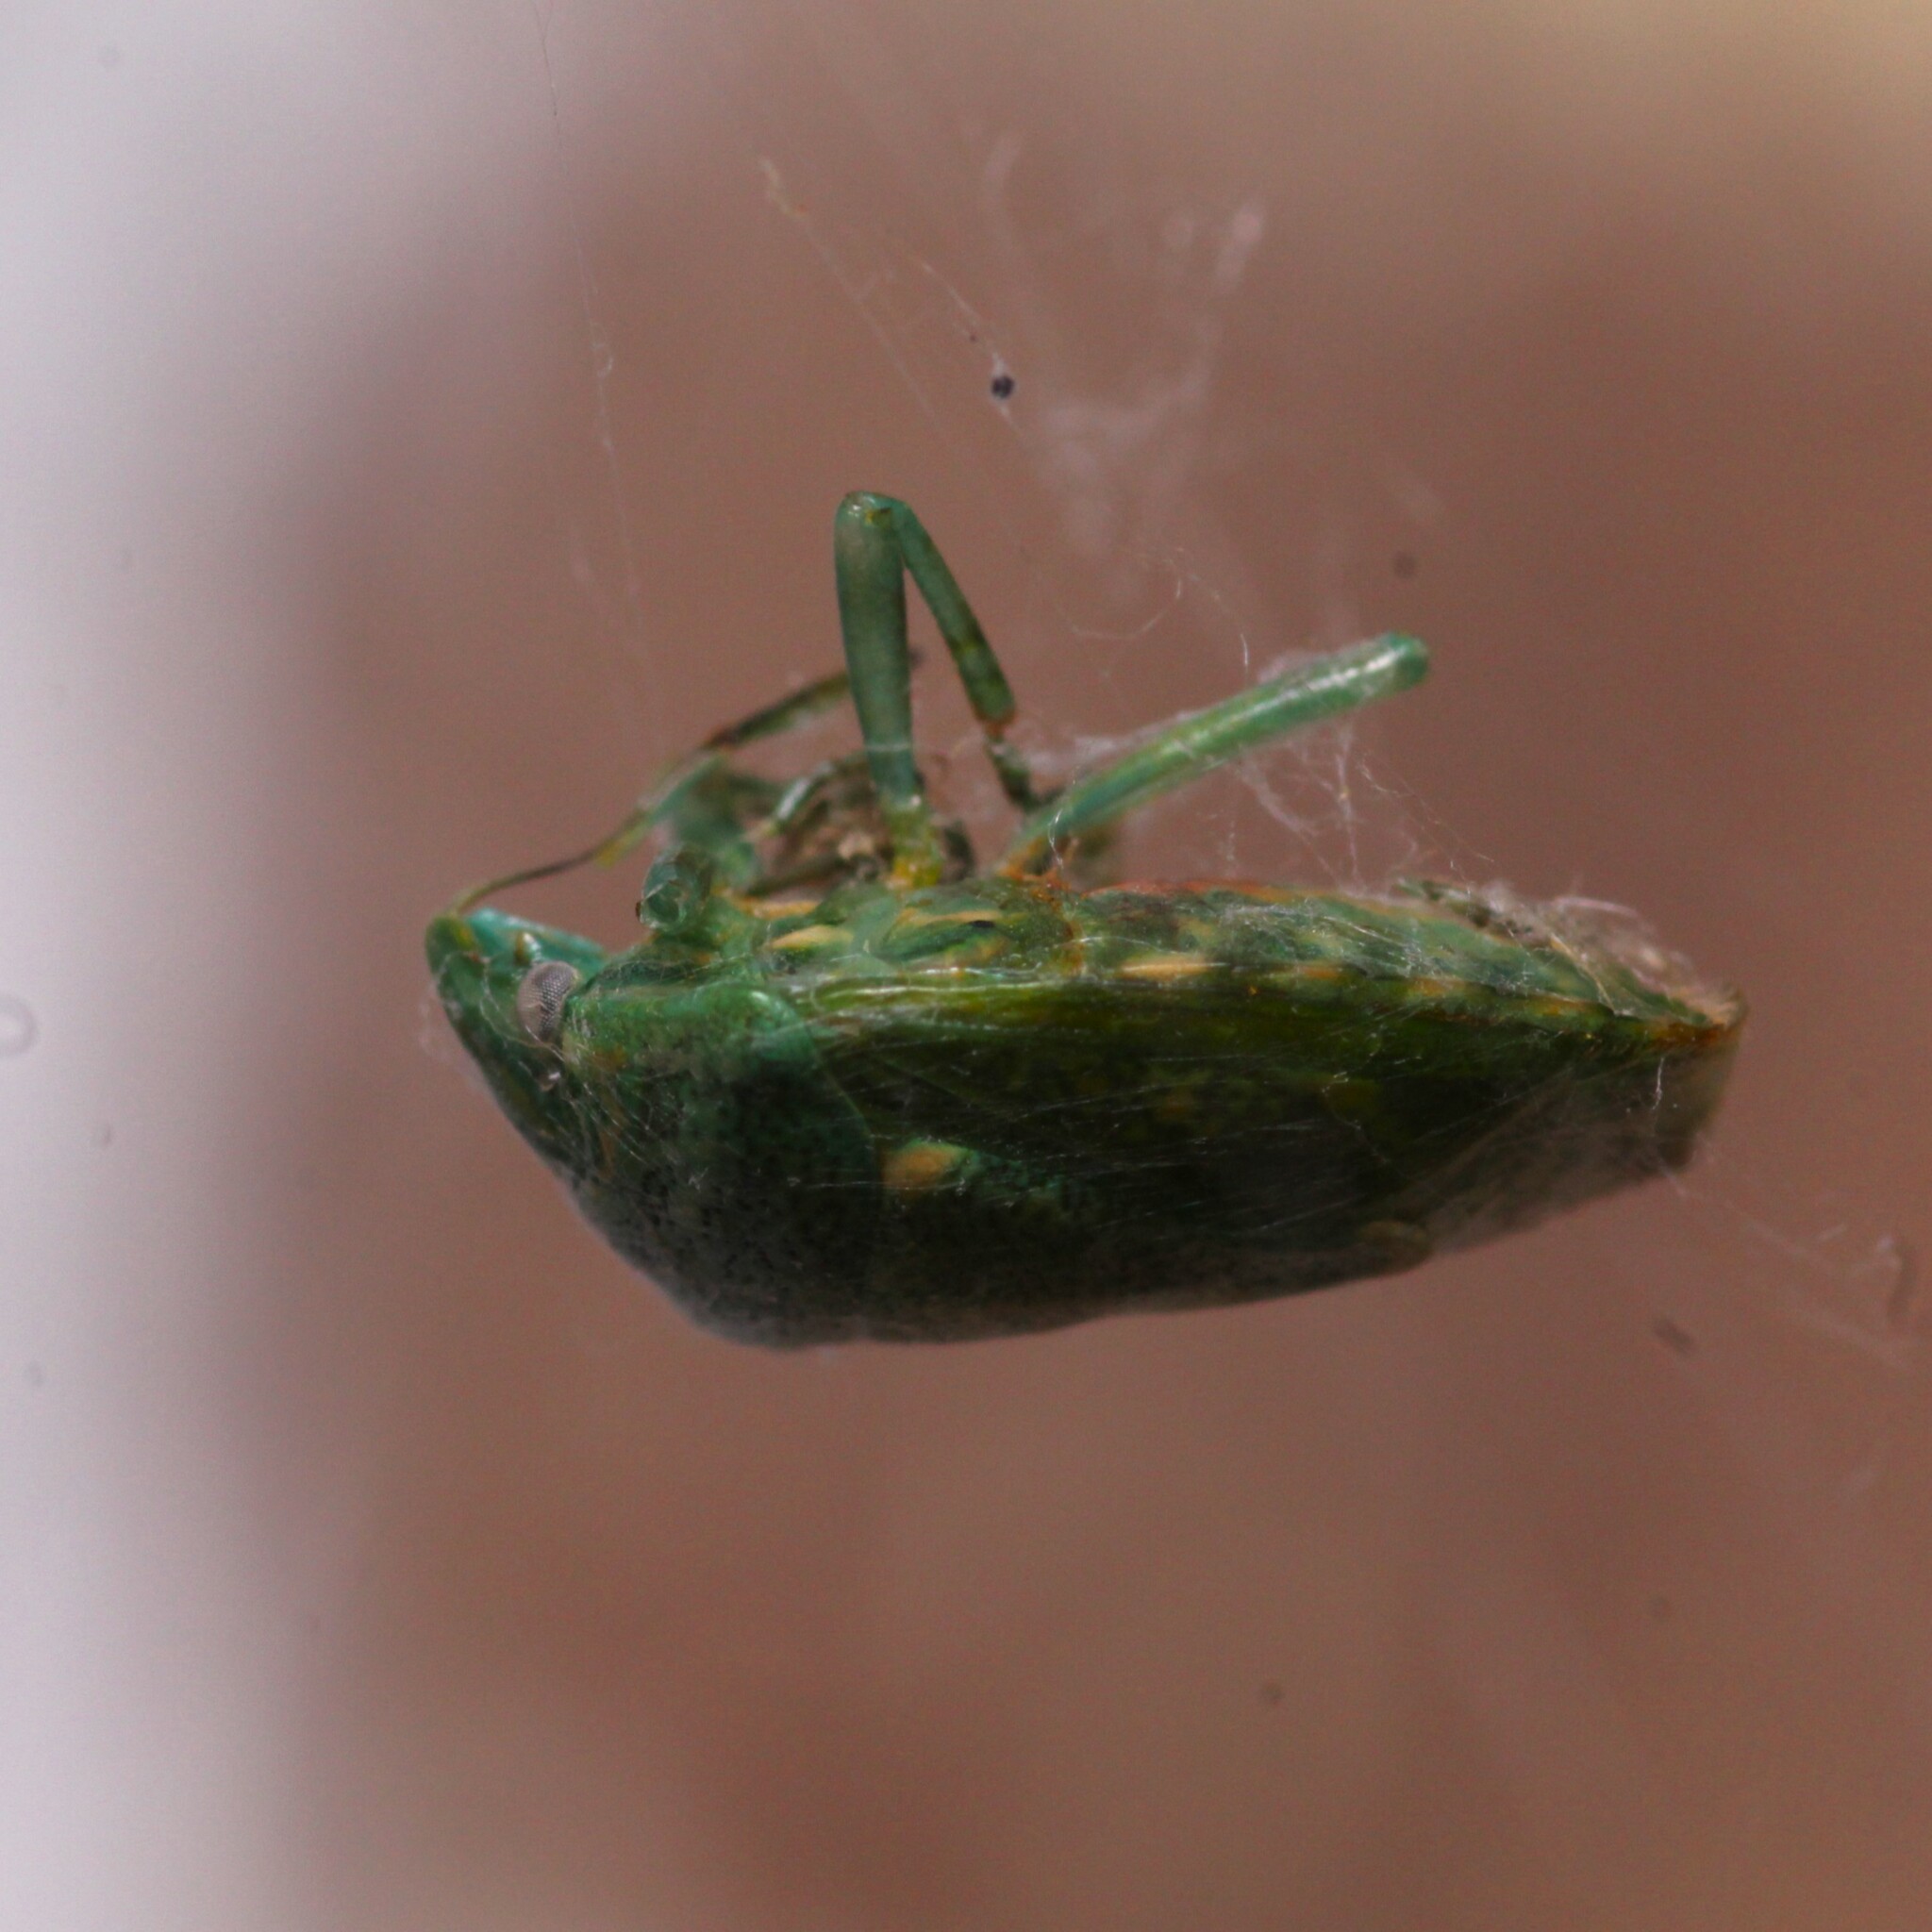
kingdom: Animalia
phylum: Arthropoda
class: Insecta
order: Hemiptera
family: Pentatomidae
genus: Banasa
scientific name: Banasa euchlora
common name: Cedar berry bug
